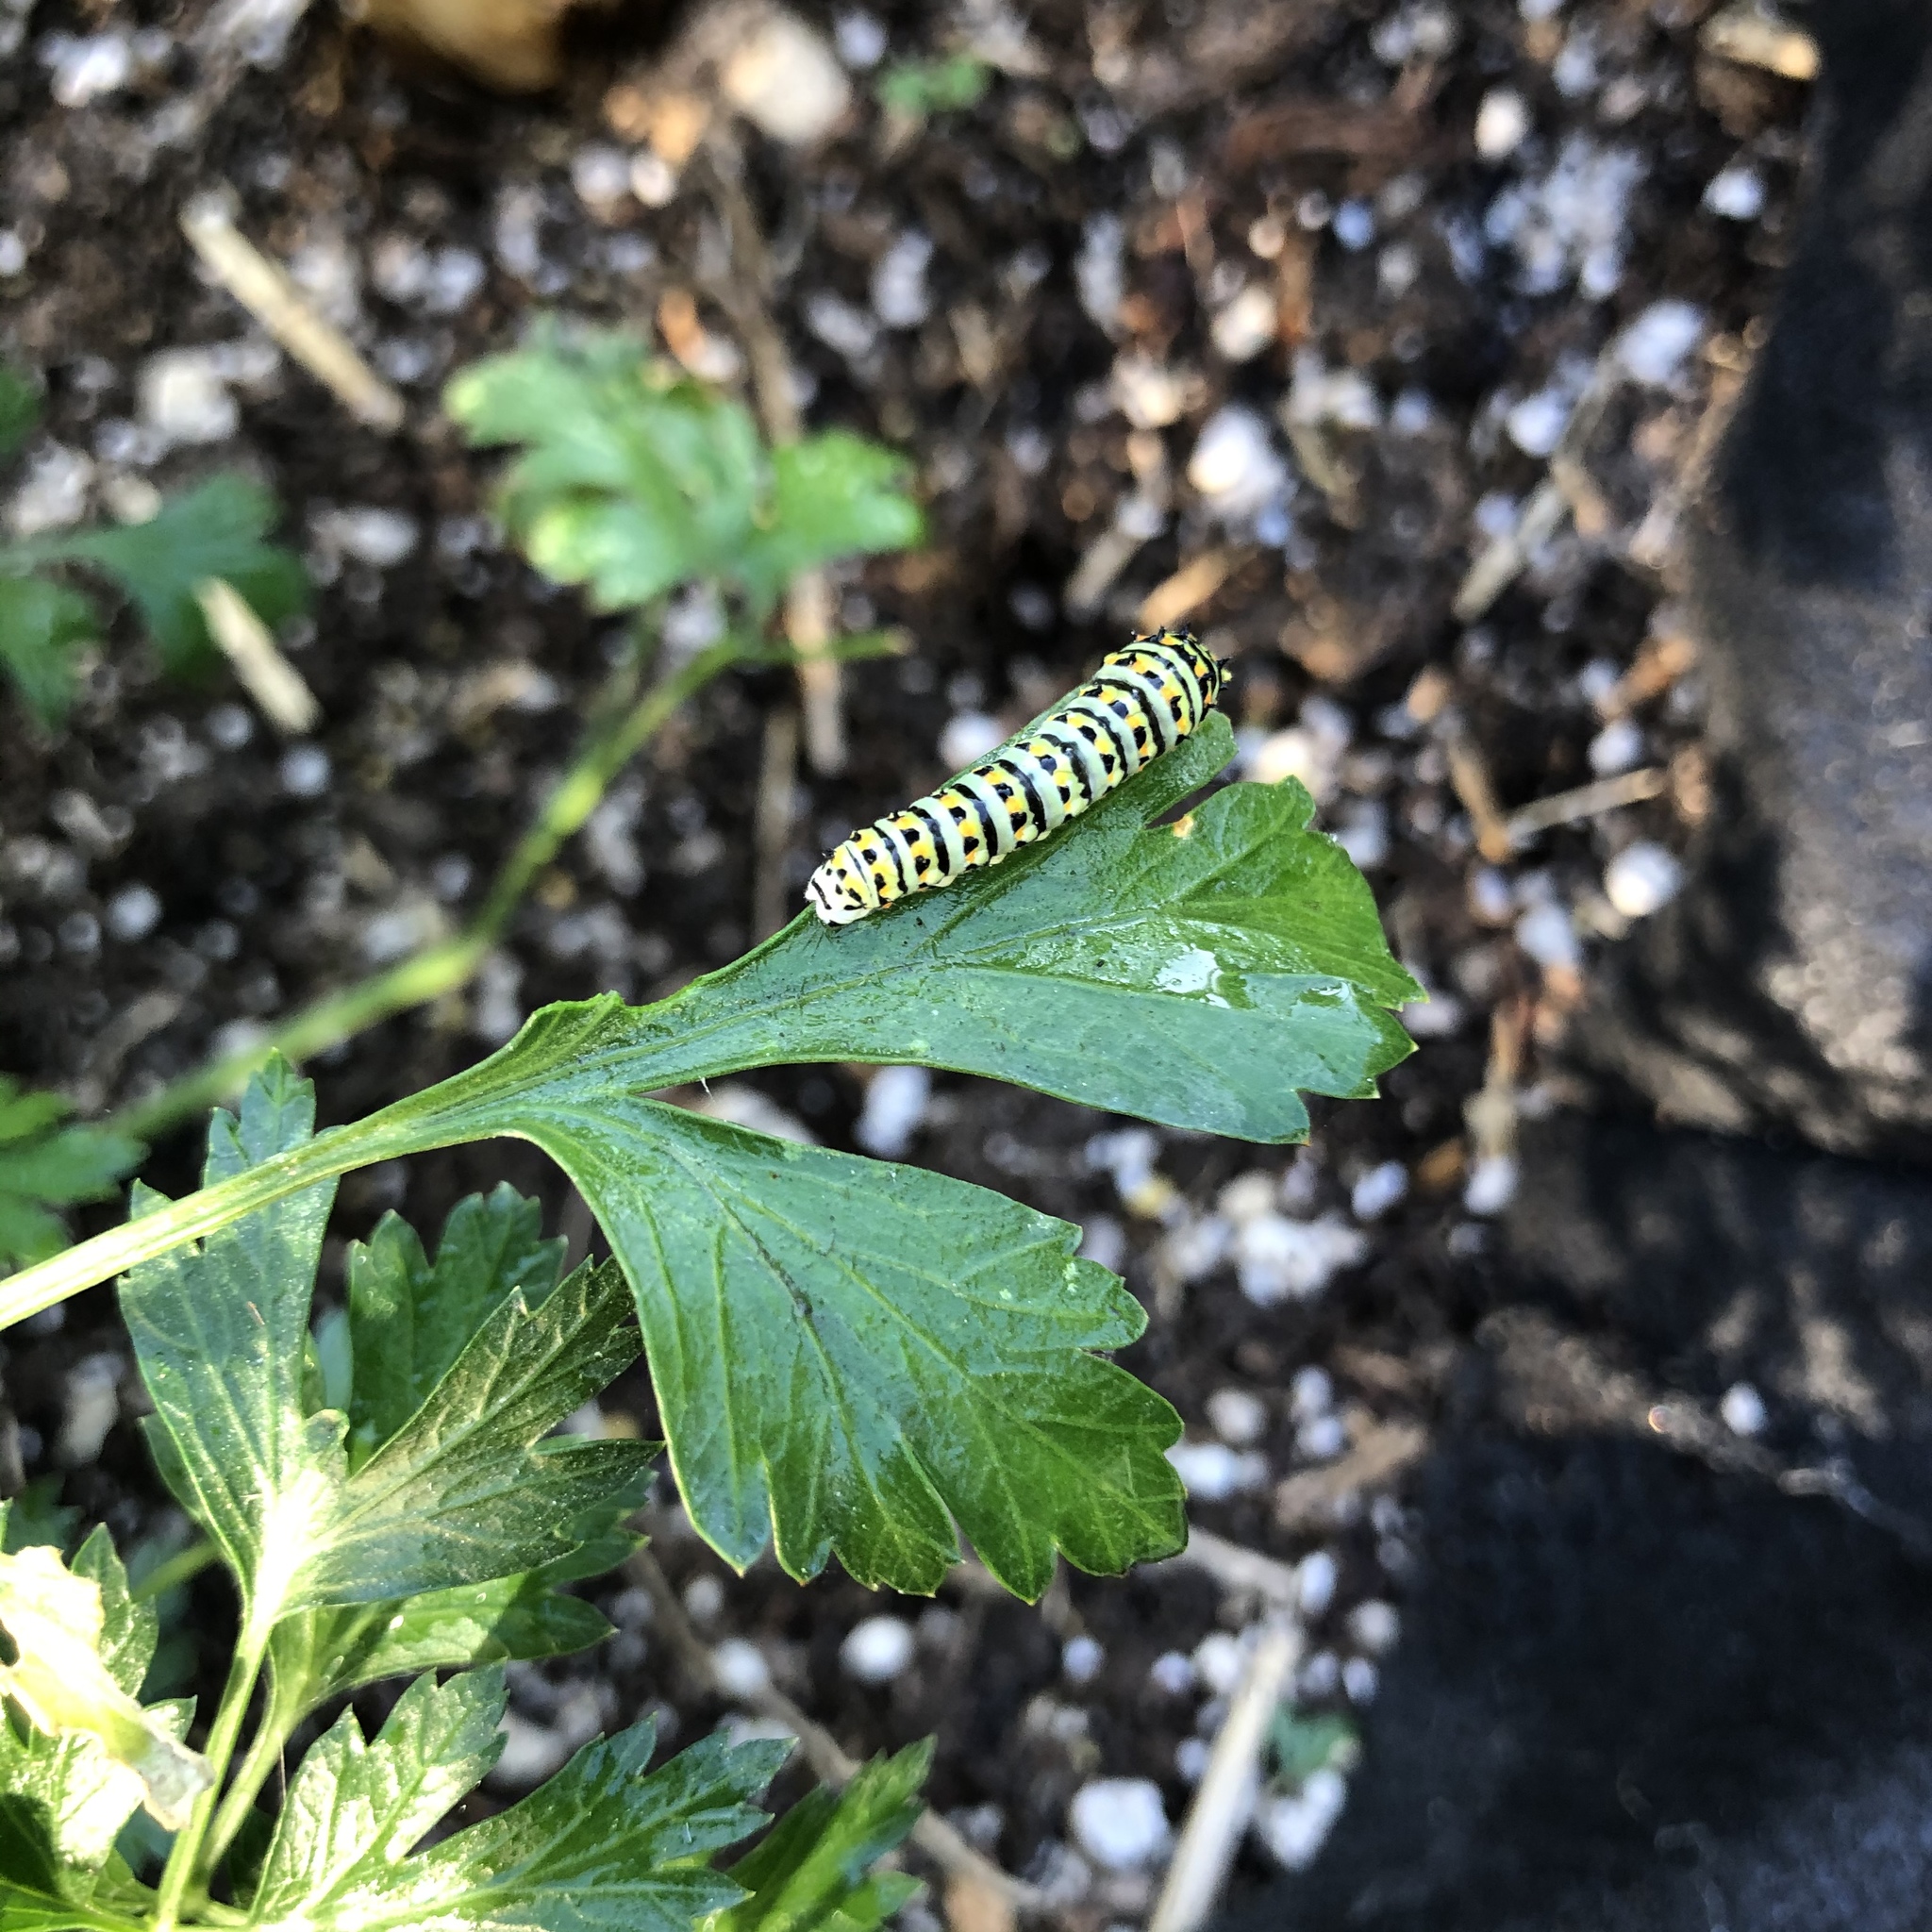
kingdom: Animalia
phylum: Arthropoda
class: Insecta
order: Lepidoptera
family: Papilionidae
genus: Papilio
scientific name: Papilio zelicaon
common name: Anise swallowtail
